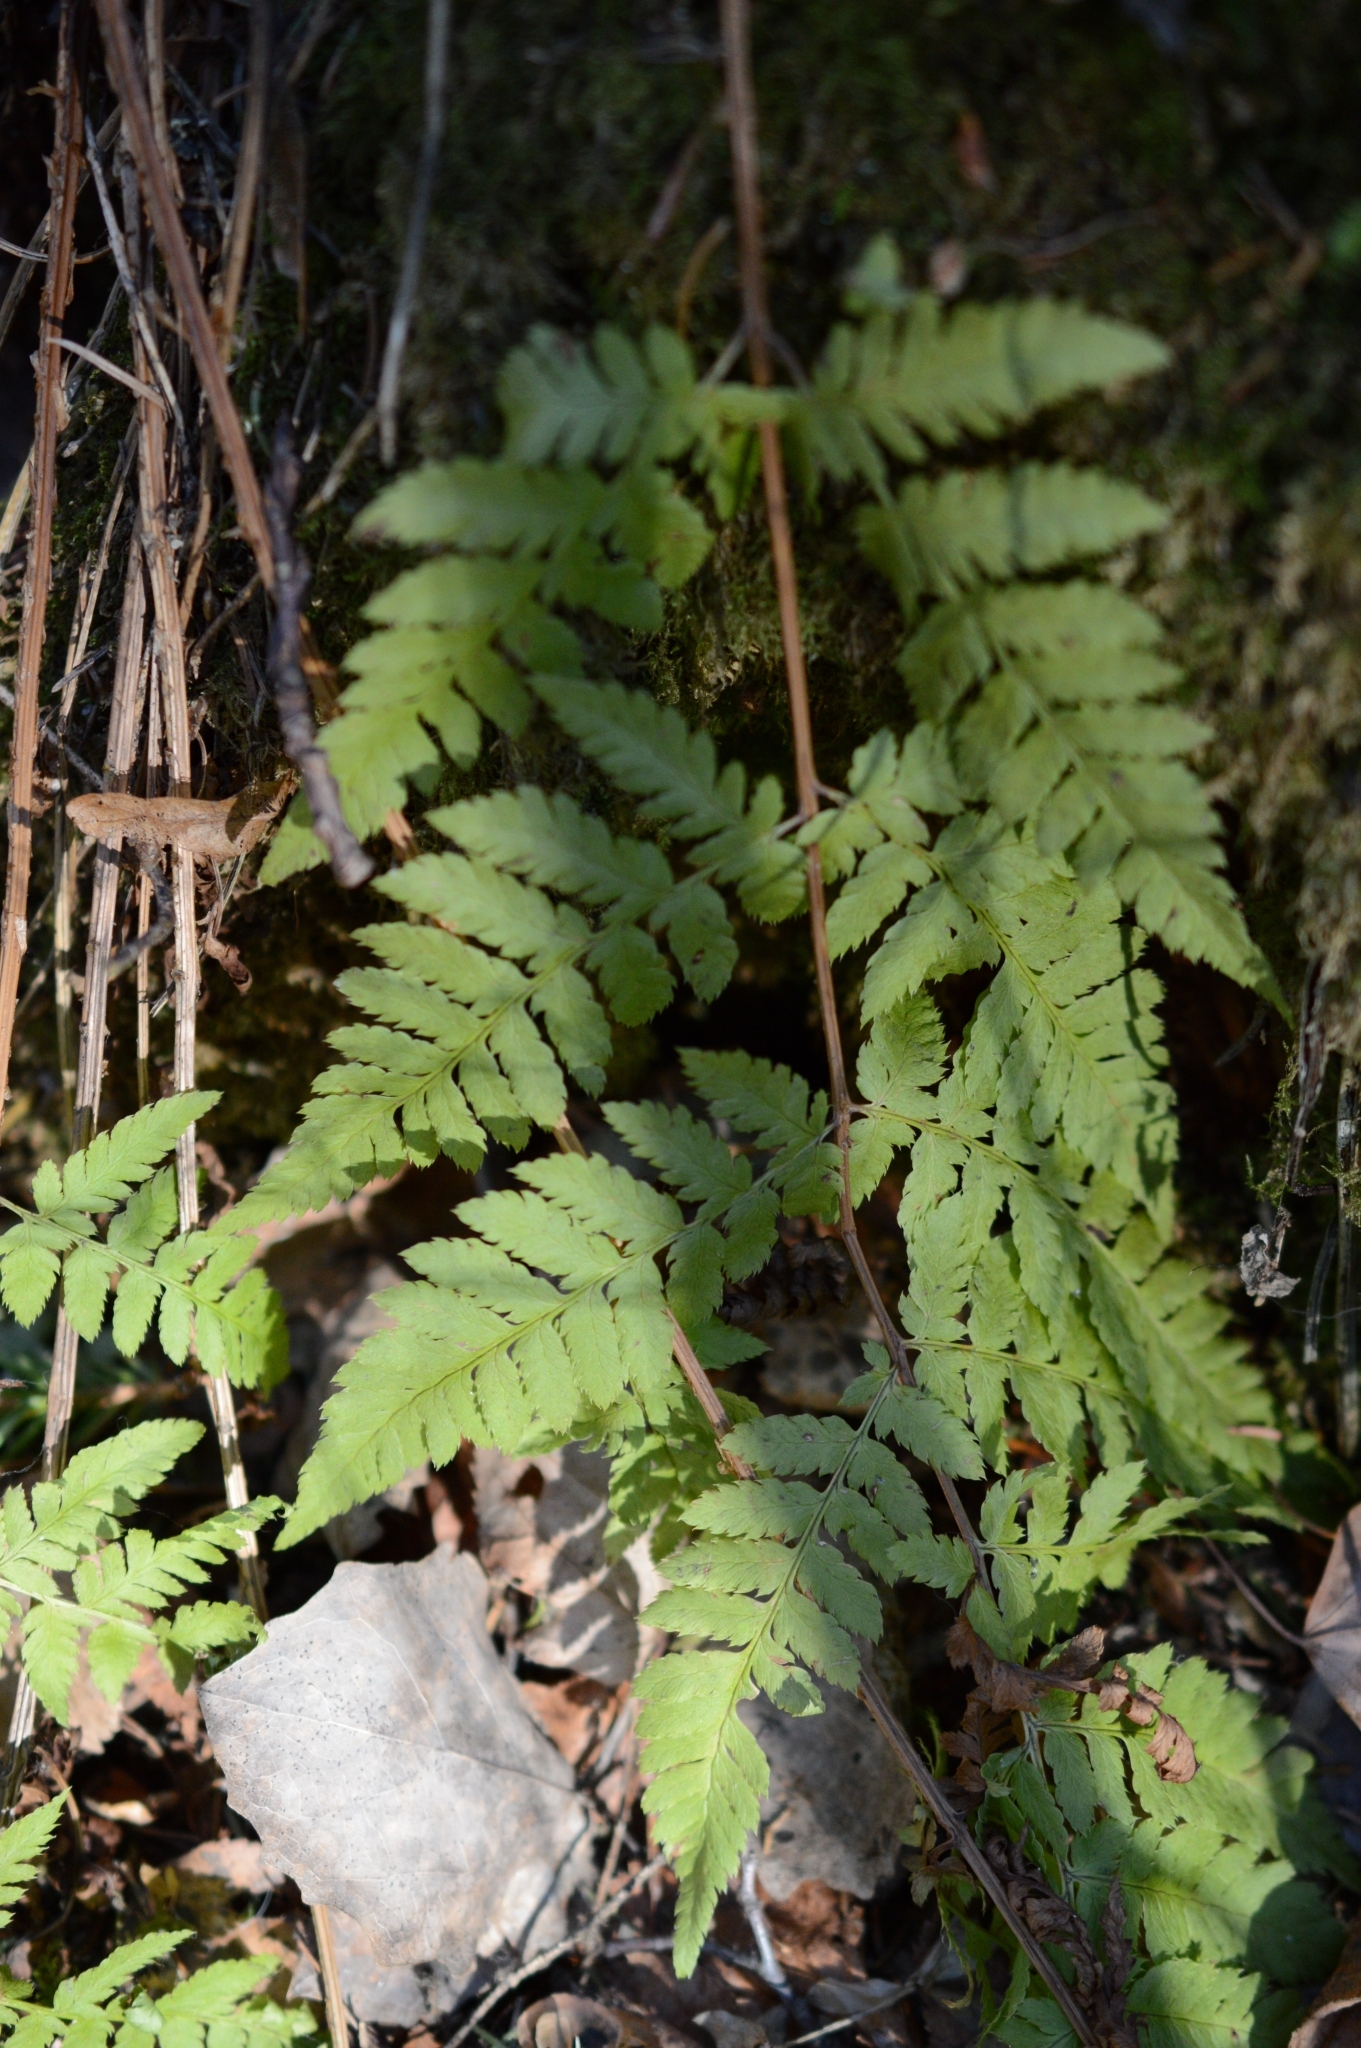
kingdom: Plantae
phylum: Tracheophyta
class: Polypodiopsida
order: Polypodiales
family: Dryopteridaceae
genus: Dryopteris
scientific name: Dryopteris carthusiana
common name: Narrow buckler-fern
